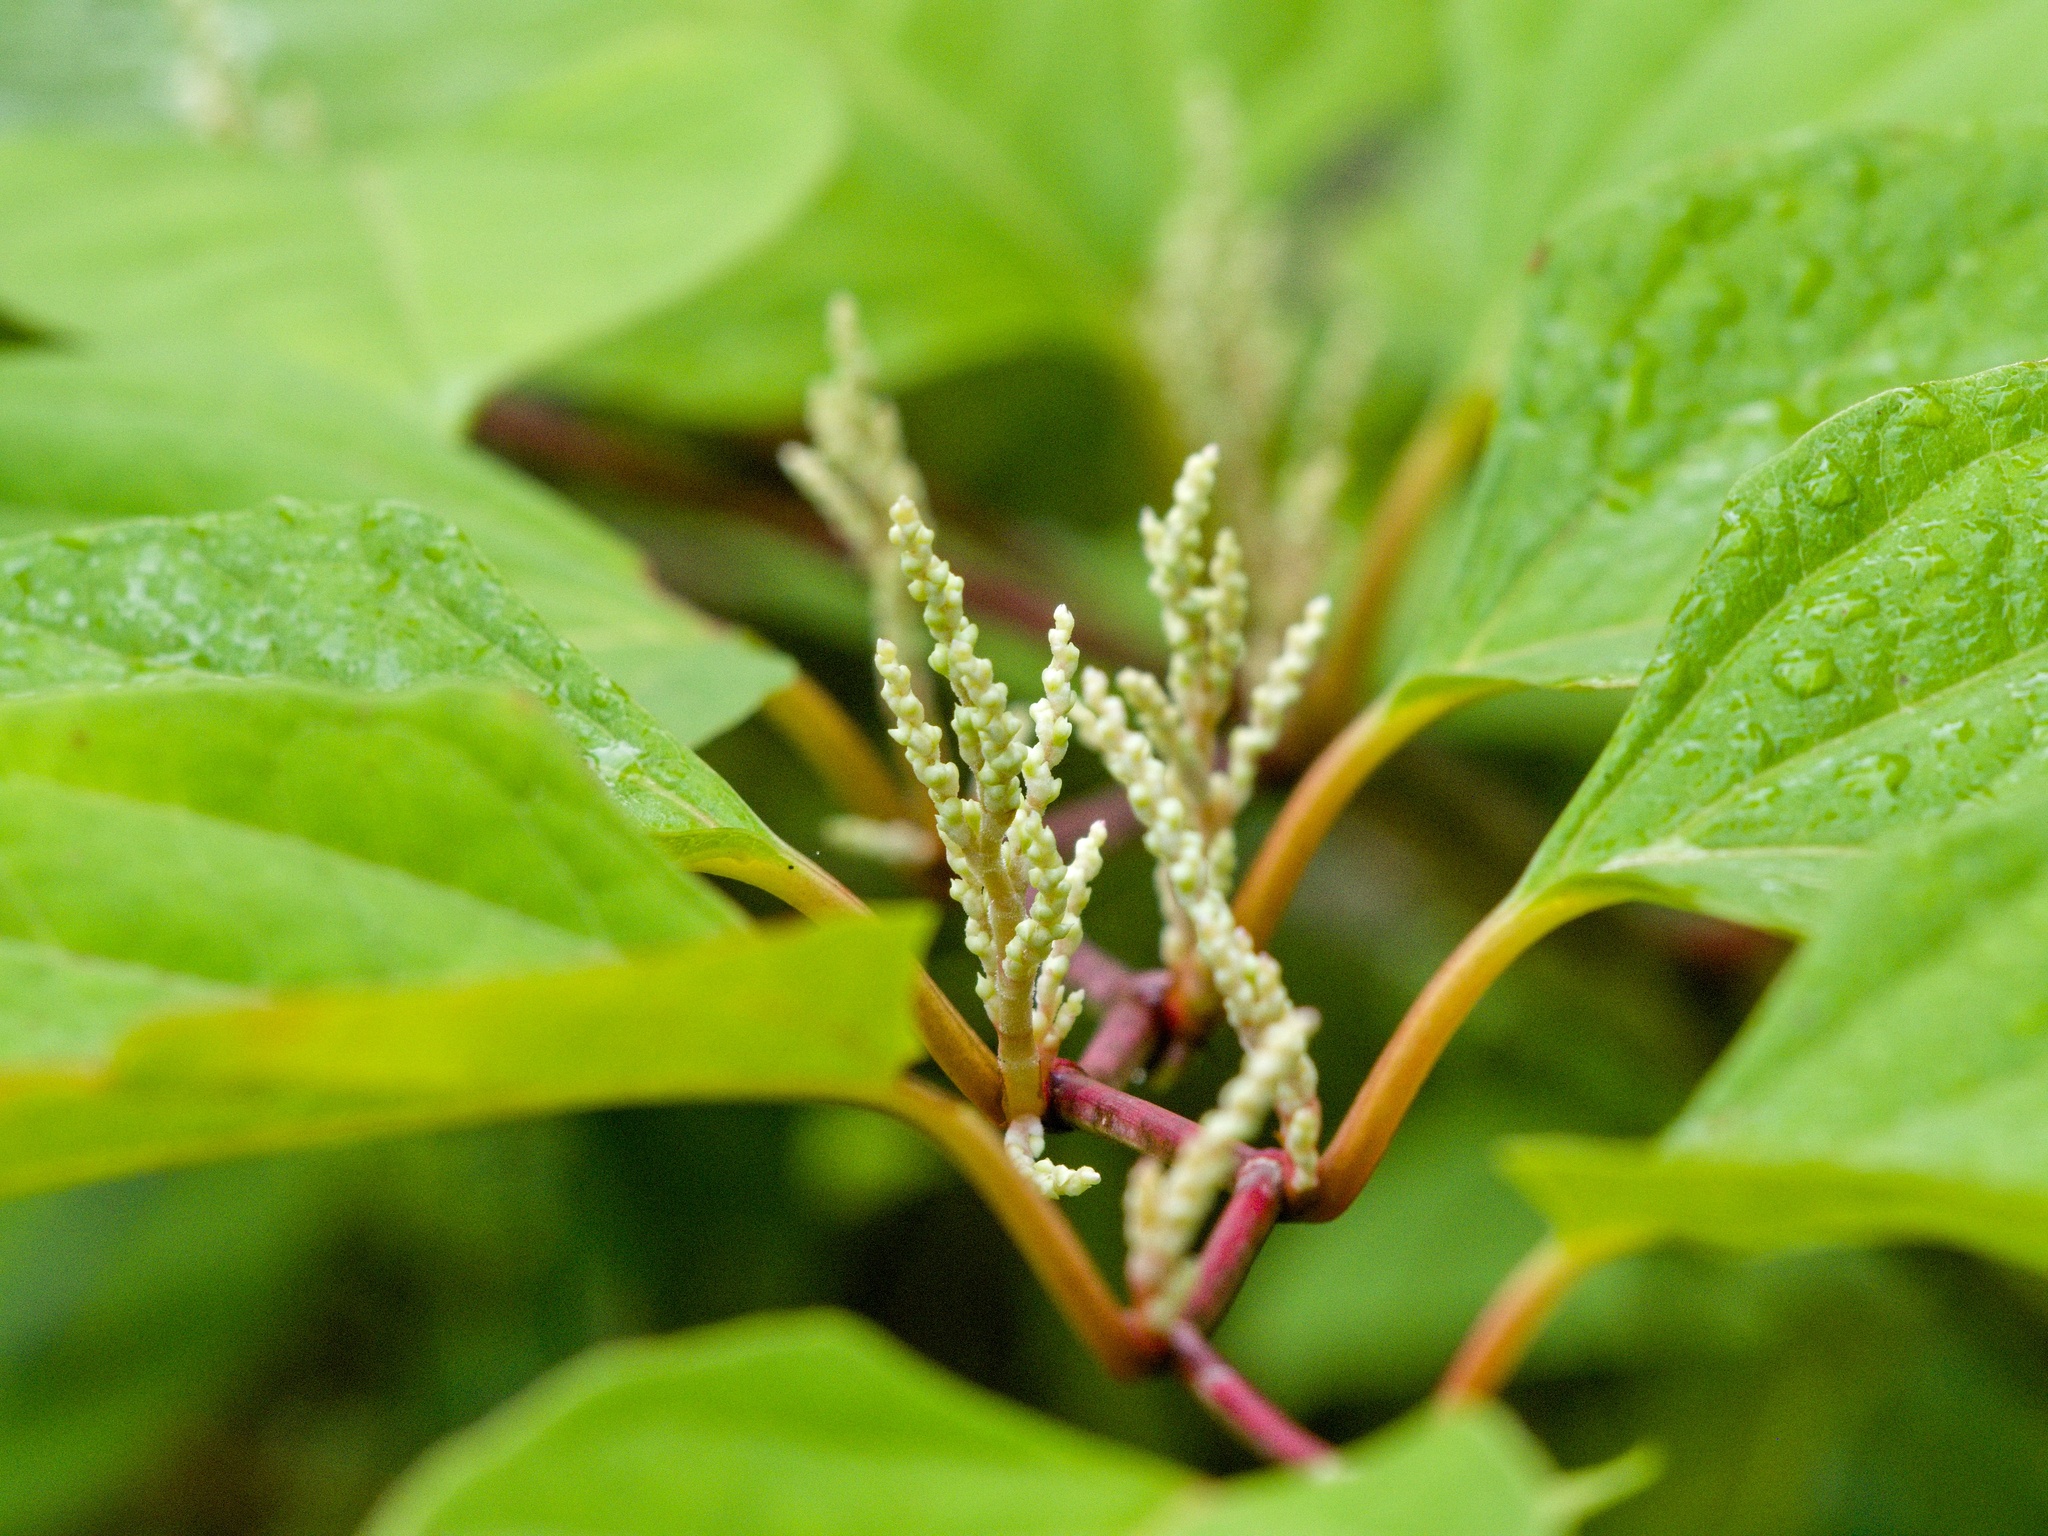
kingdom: Plantae
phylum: Tracheophyta
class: Magnoliopsida
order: Caryophyllales
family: Polygonaceae
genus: Reynoutria
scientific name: Reynoutria japonica
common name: Japanese knotweed
